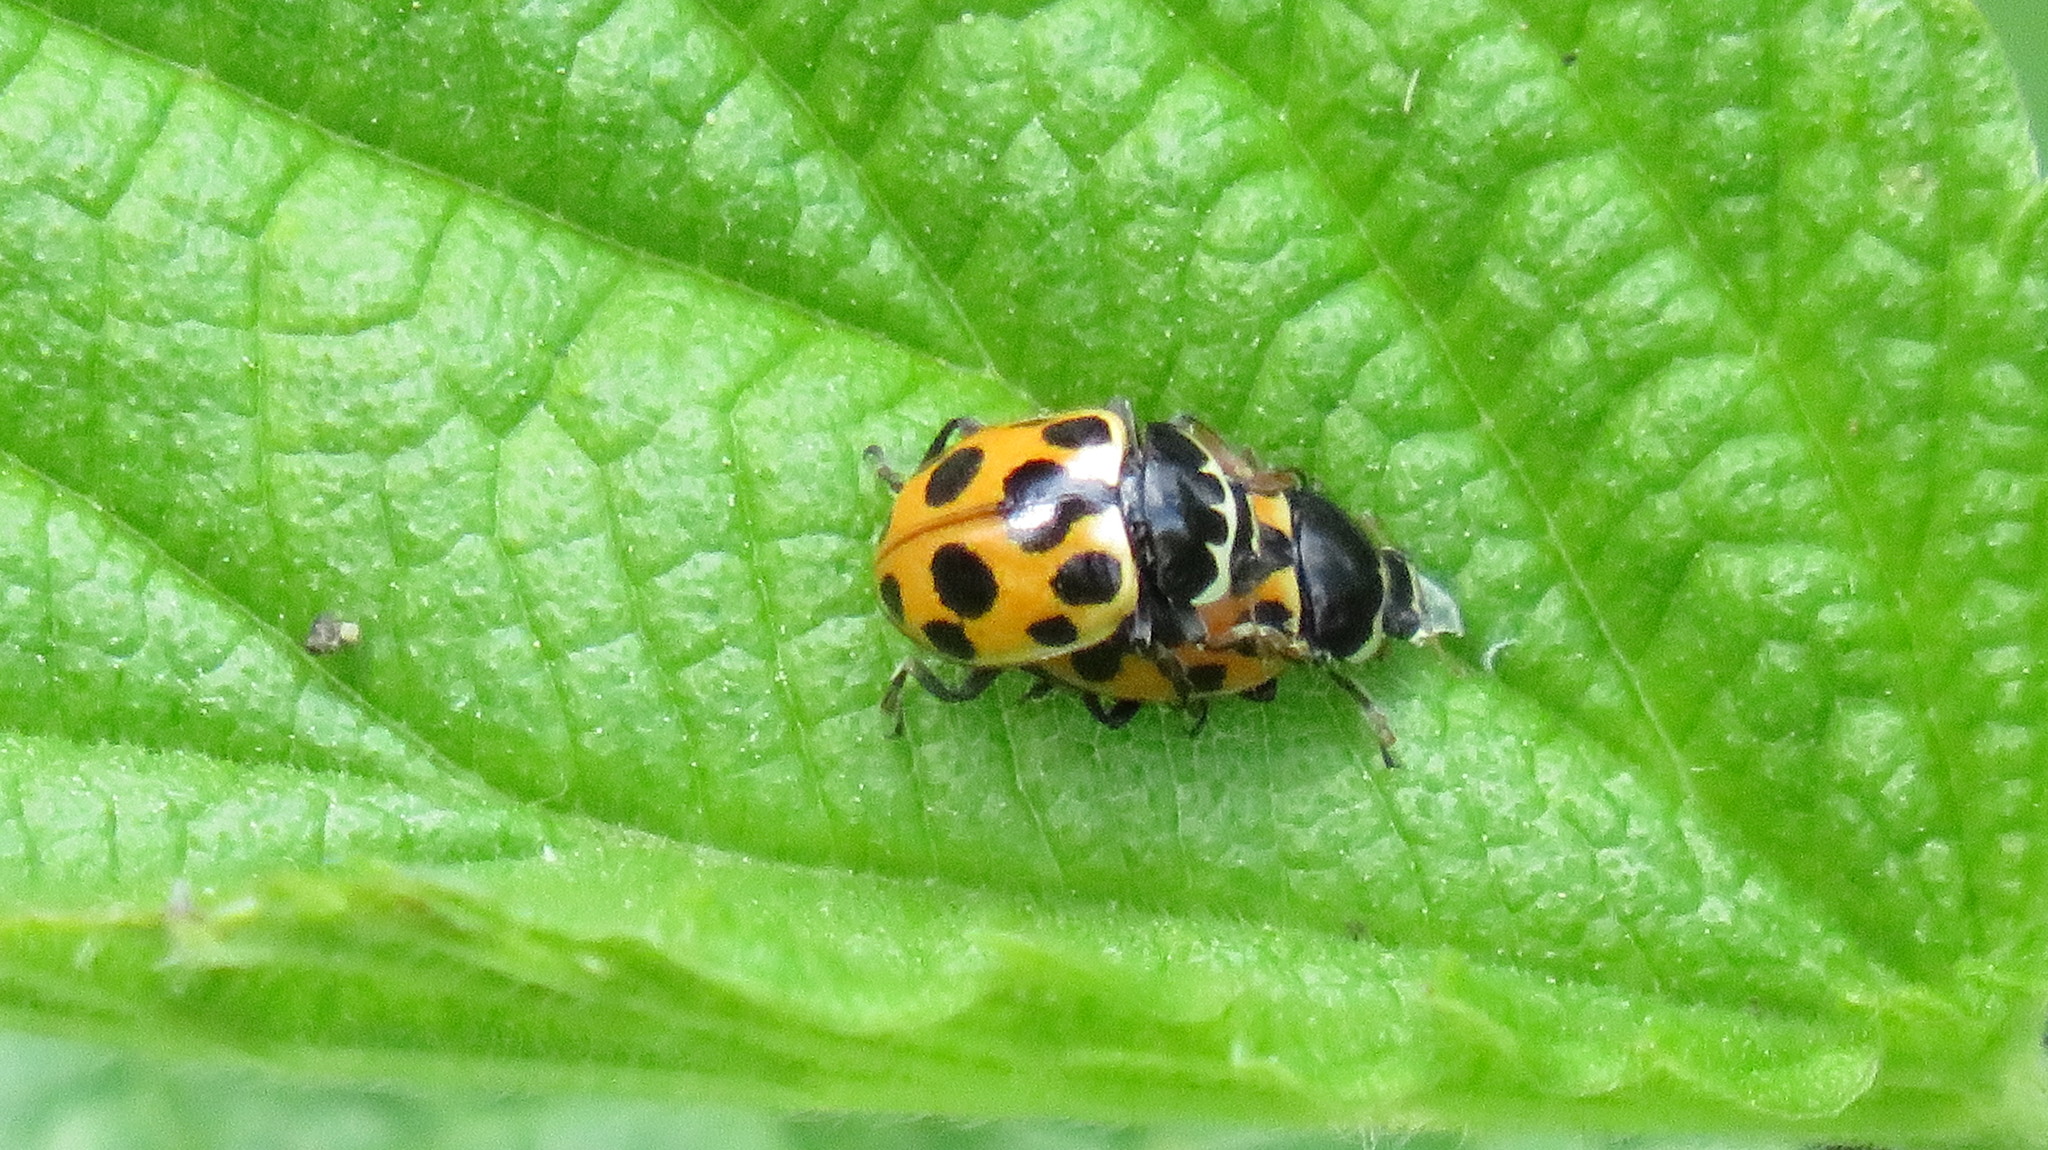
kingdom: Animalia
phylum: Arthropoda
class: Insecta
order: Coleoptera
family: Coccinellidae
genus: Ceratomegilla
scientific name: Ceratomegilla notata
